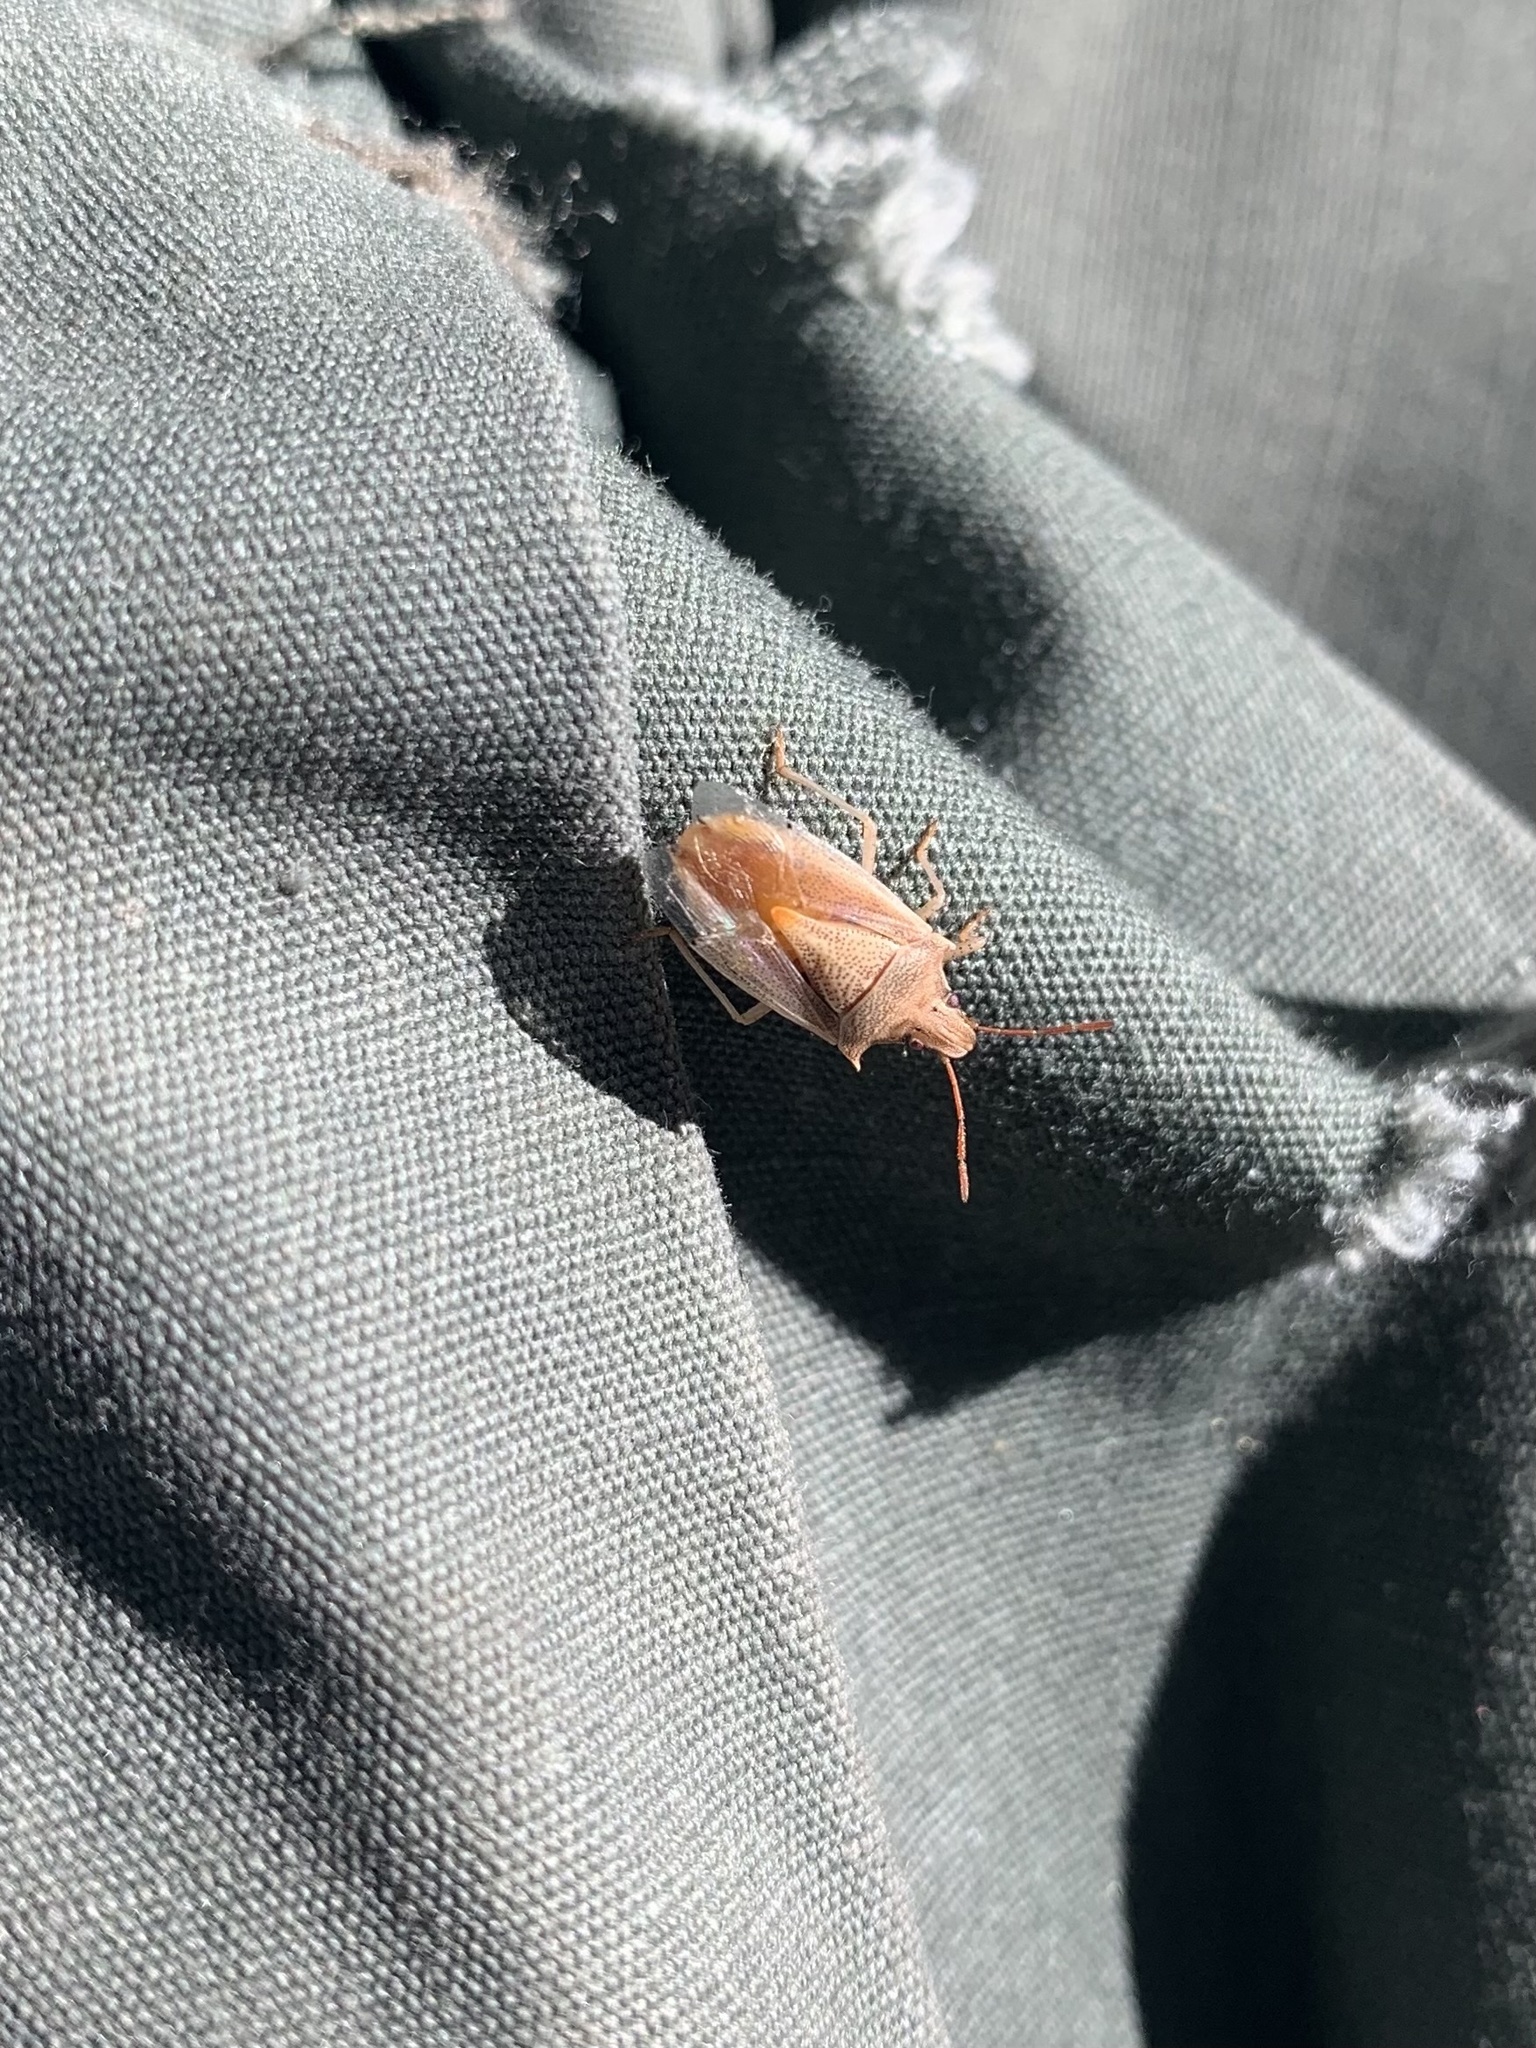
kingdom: Animalia
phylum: Arthropoda
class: Insecta
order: Hemiptera
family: Pentatomidae
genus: Oebalus
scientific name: Oebalus pugnax
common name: Rice stink bug
